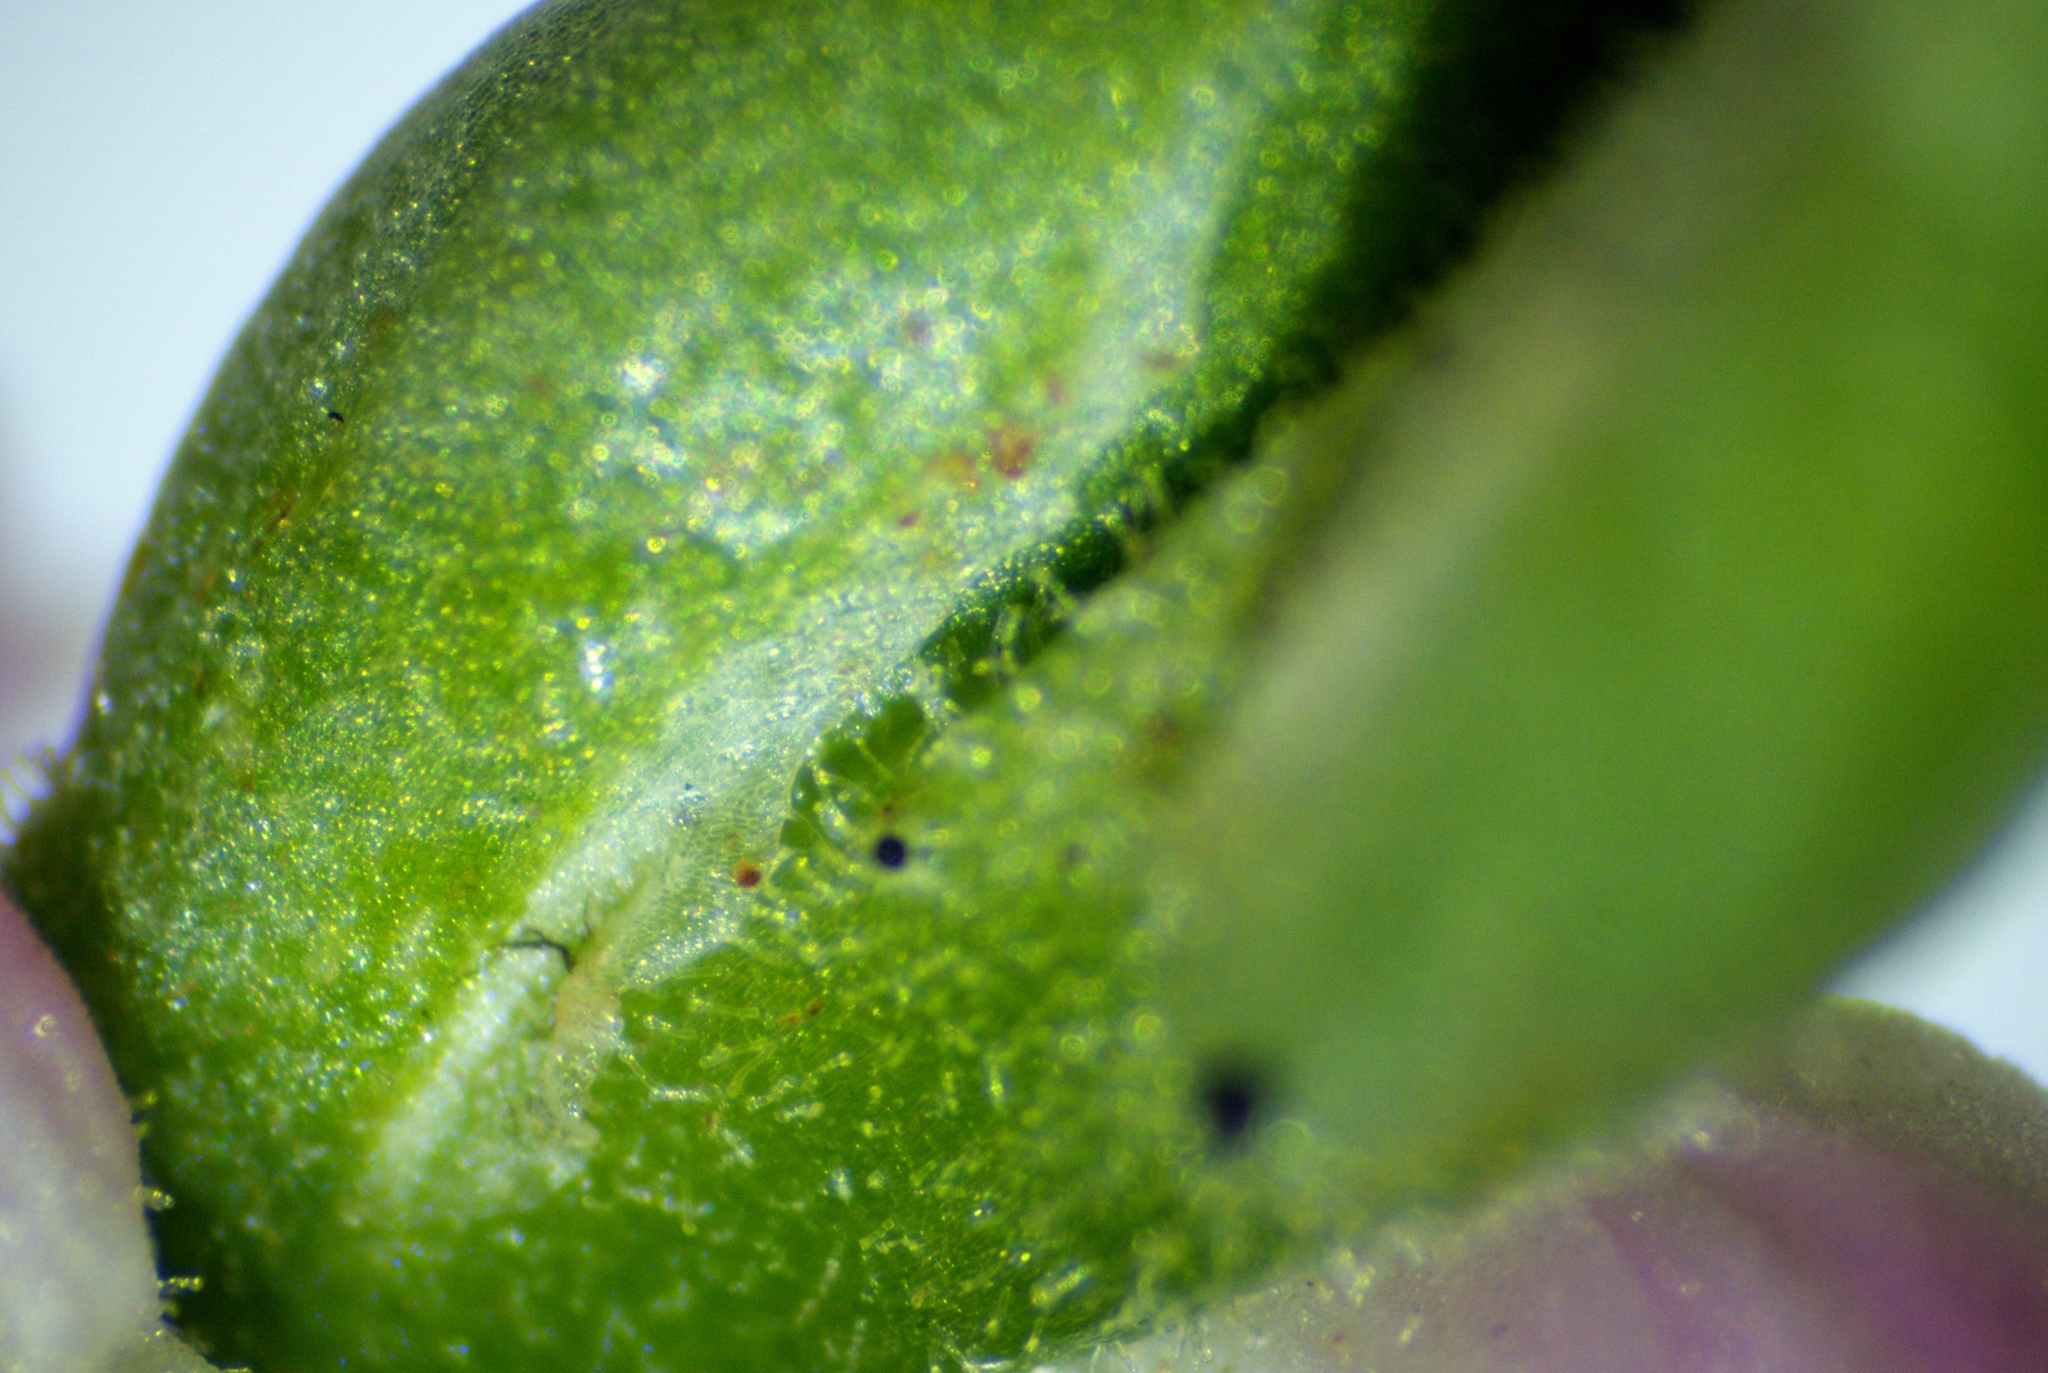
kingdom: Plantae
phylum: Tracheophyta
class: Liliopsida
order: Asparagales
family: Orchidaceae
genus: Spiranthes
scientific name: Spiranthes australis
